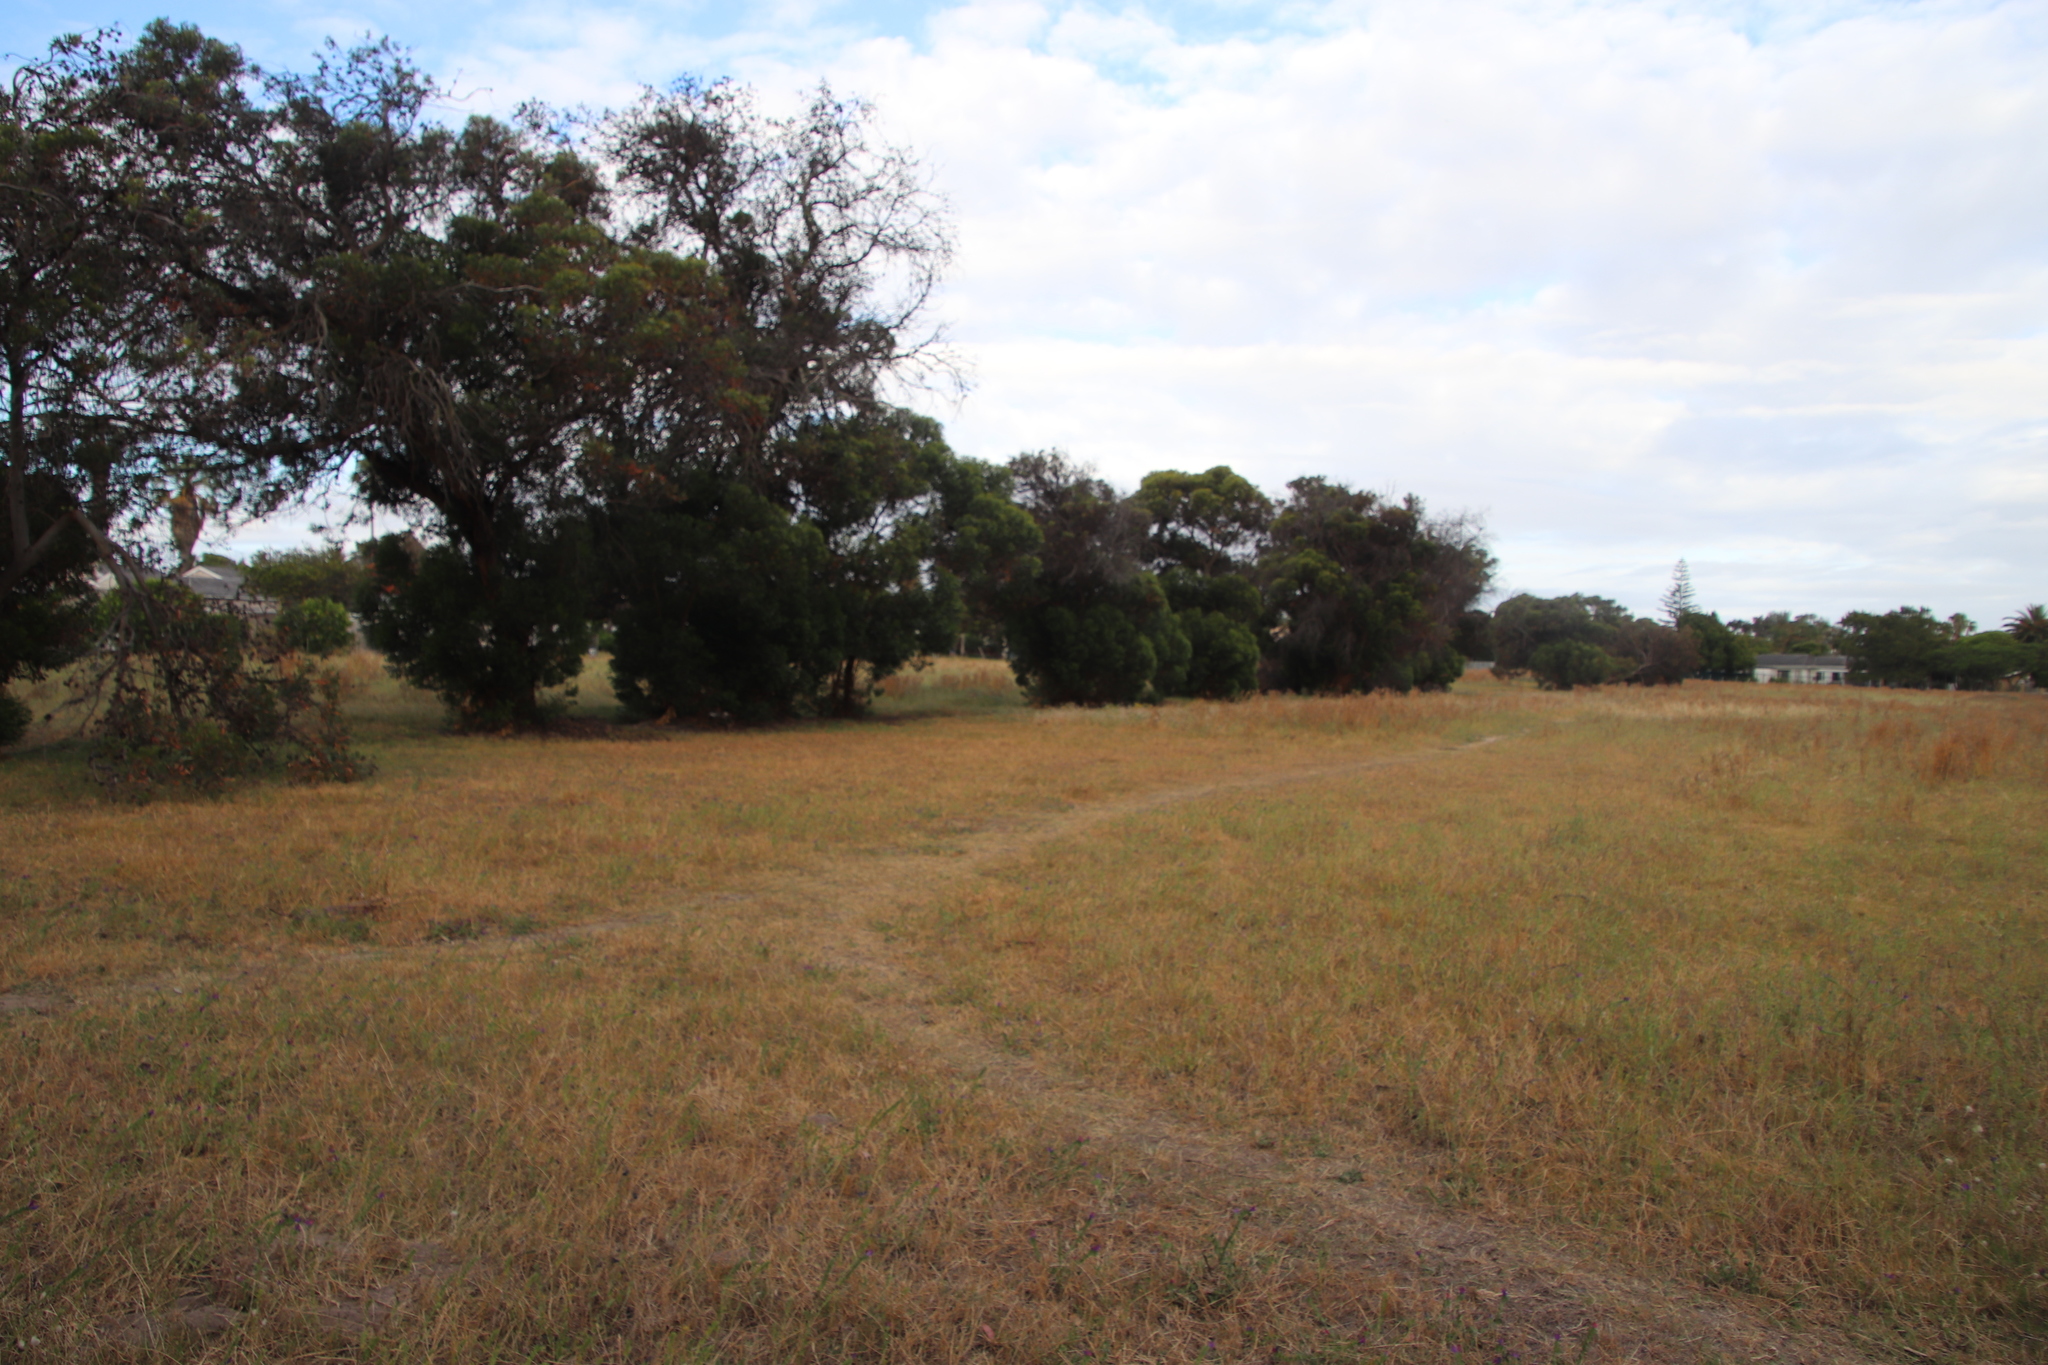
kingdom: Plantae
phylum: Tracheophyta
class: Magnoliopsida
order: Myrtales
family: Myrtaceae
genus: Eucalyptus
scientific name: Eucalyptus conferruminata
